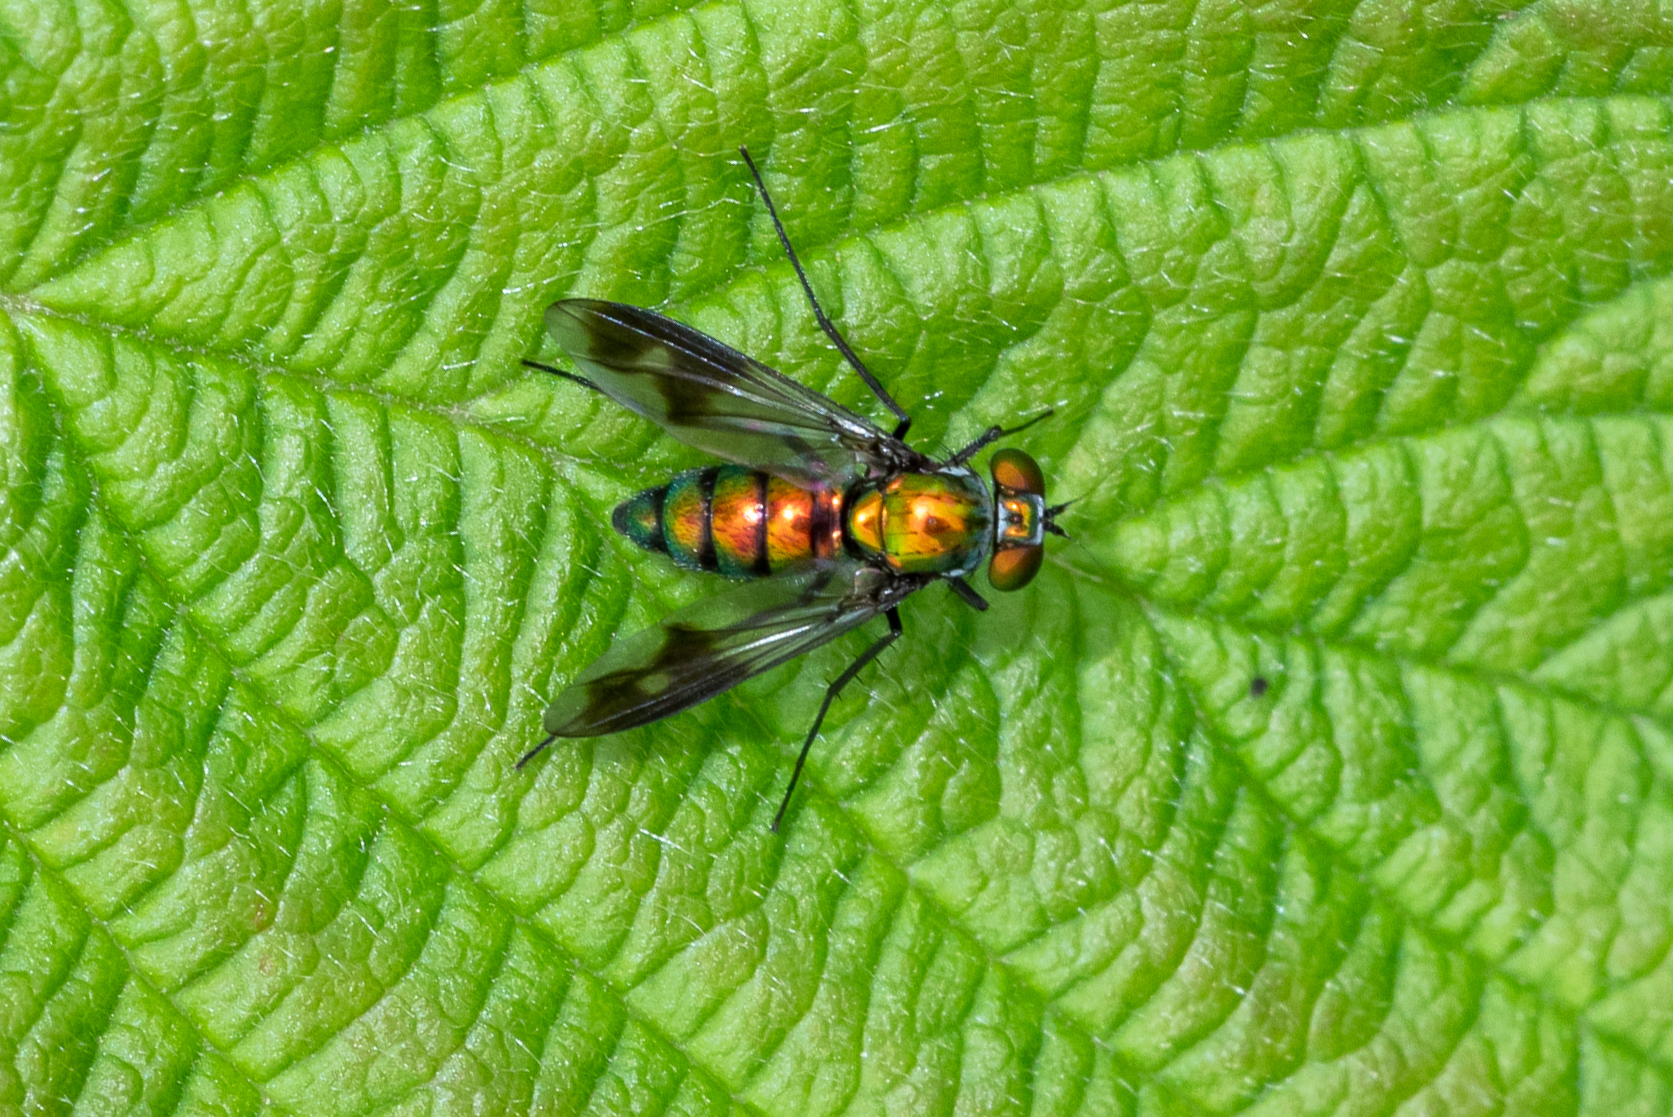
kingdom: Animalia
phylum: Arthropoda
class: Insecta
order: Diptera
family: Dolichopodidae
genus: Condylostylus
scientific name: Condylostylus patibulatus
